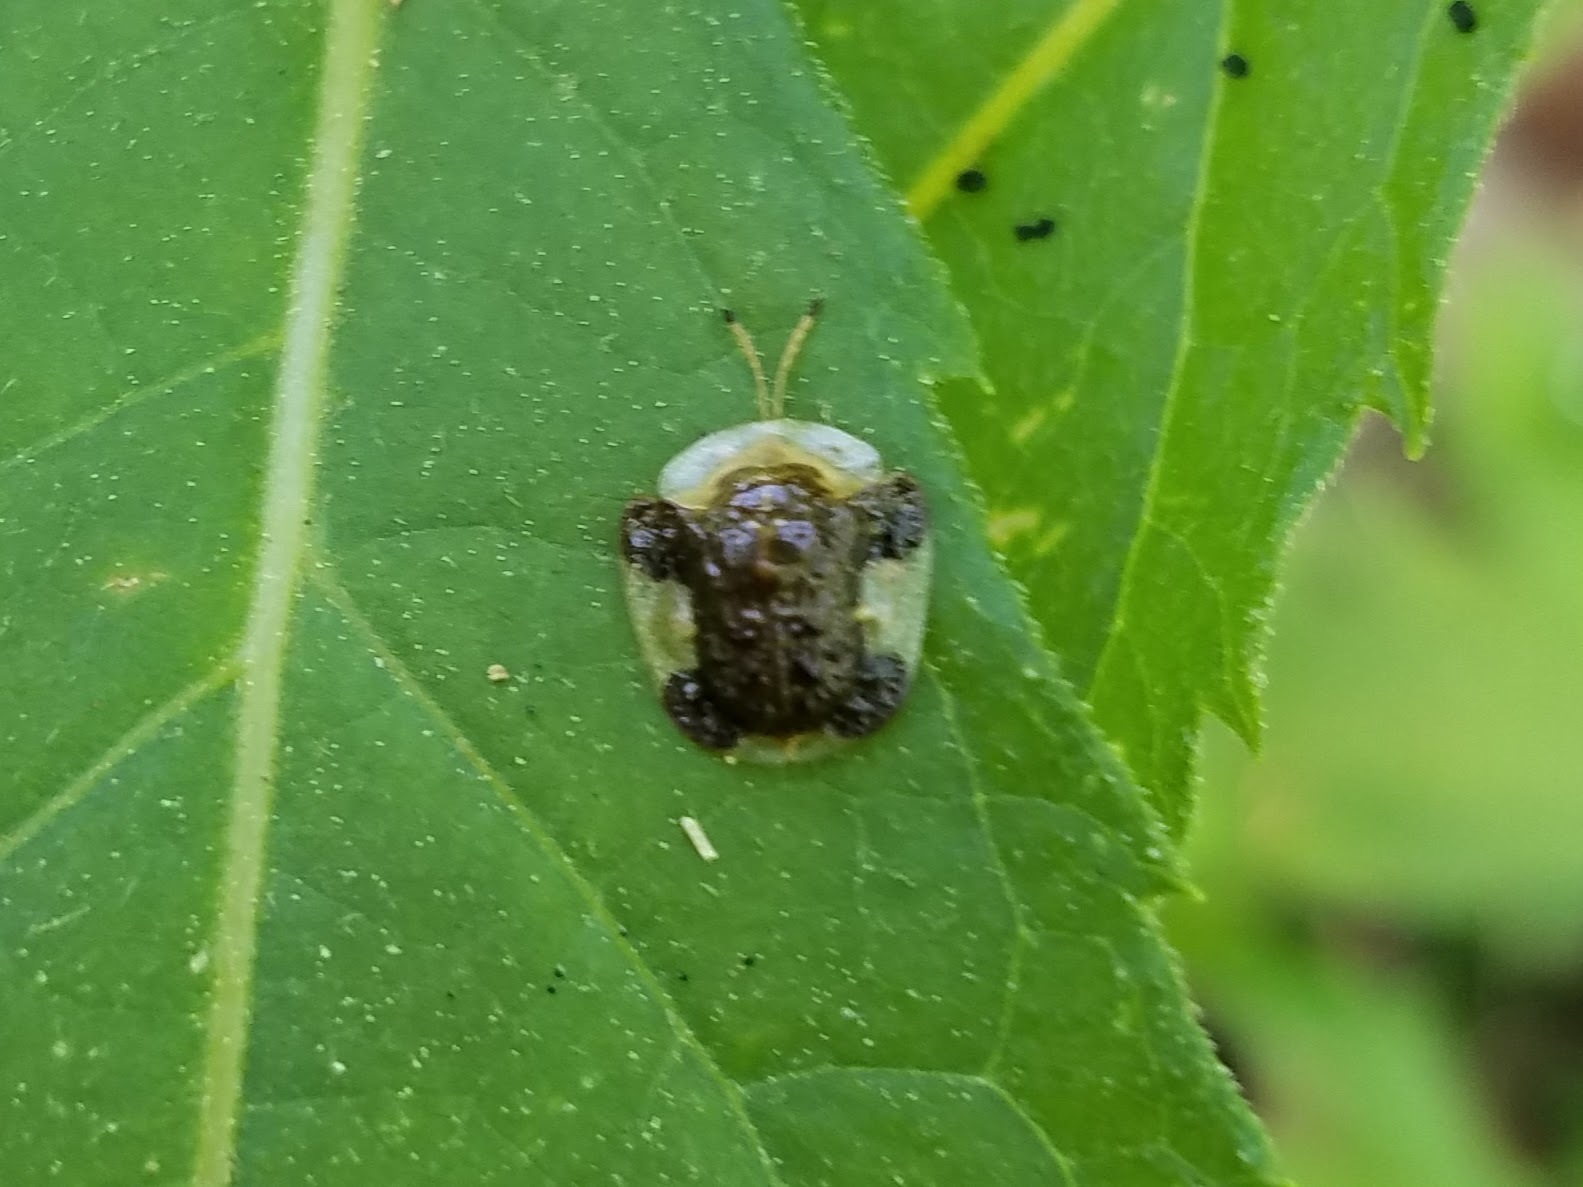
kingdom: Animalia
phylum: Arthropoda
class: Insecta
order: Coleoptera
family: Chrysomelidae
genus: Helocassis
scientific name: Helocassis clavata
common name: Clavate tortoise beetle
